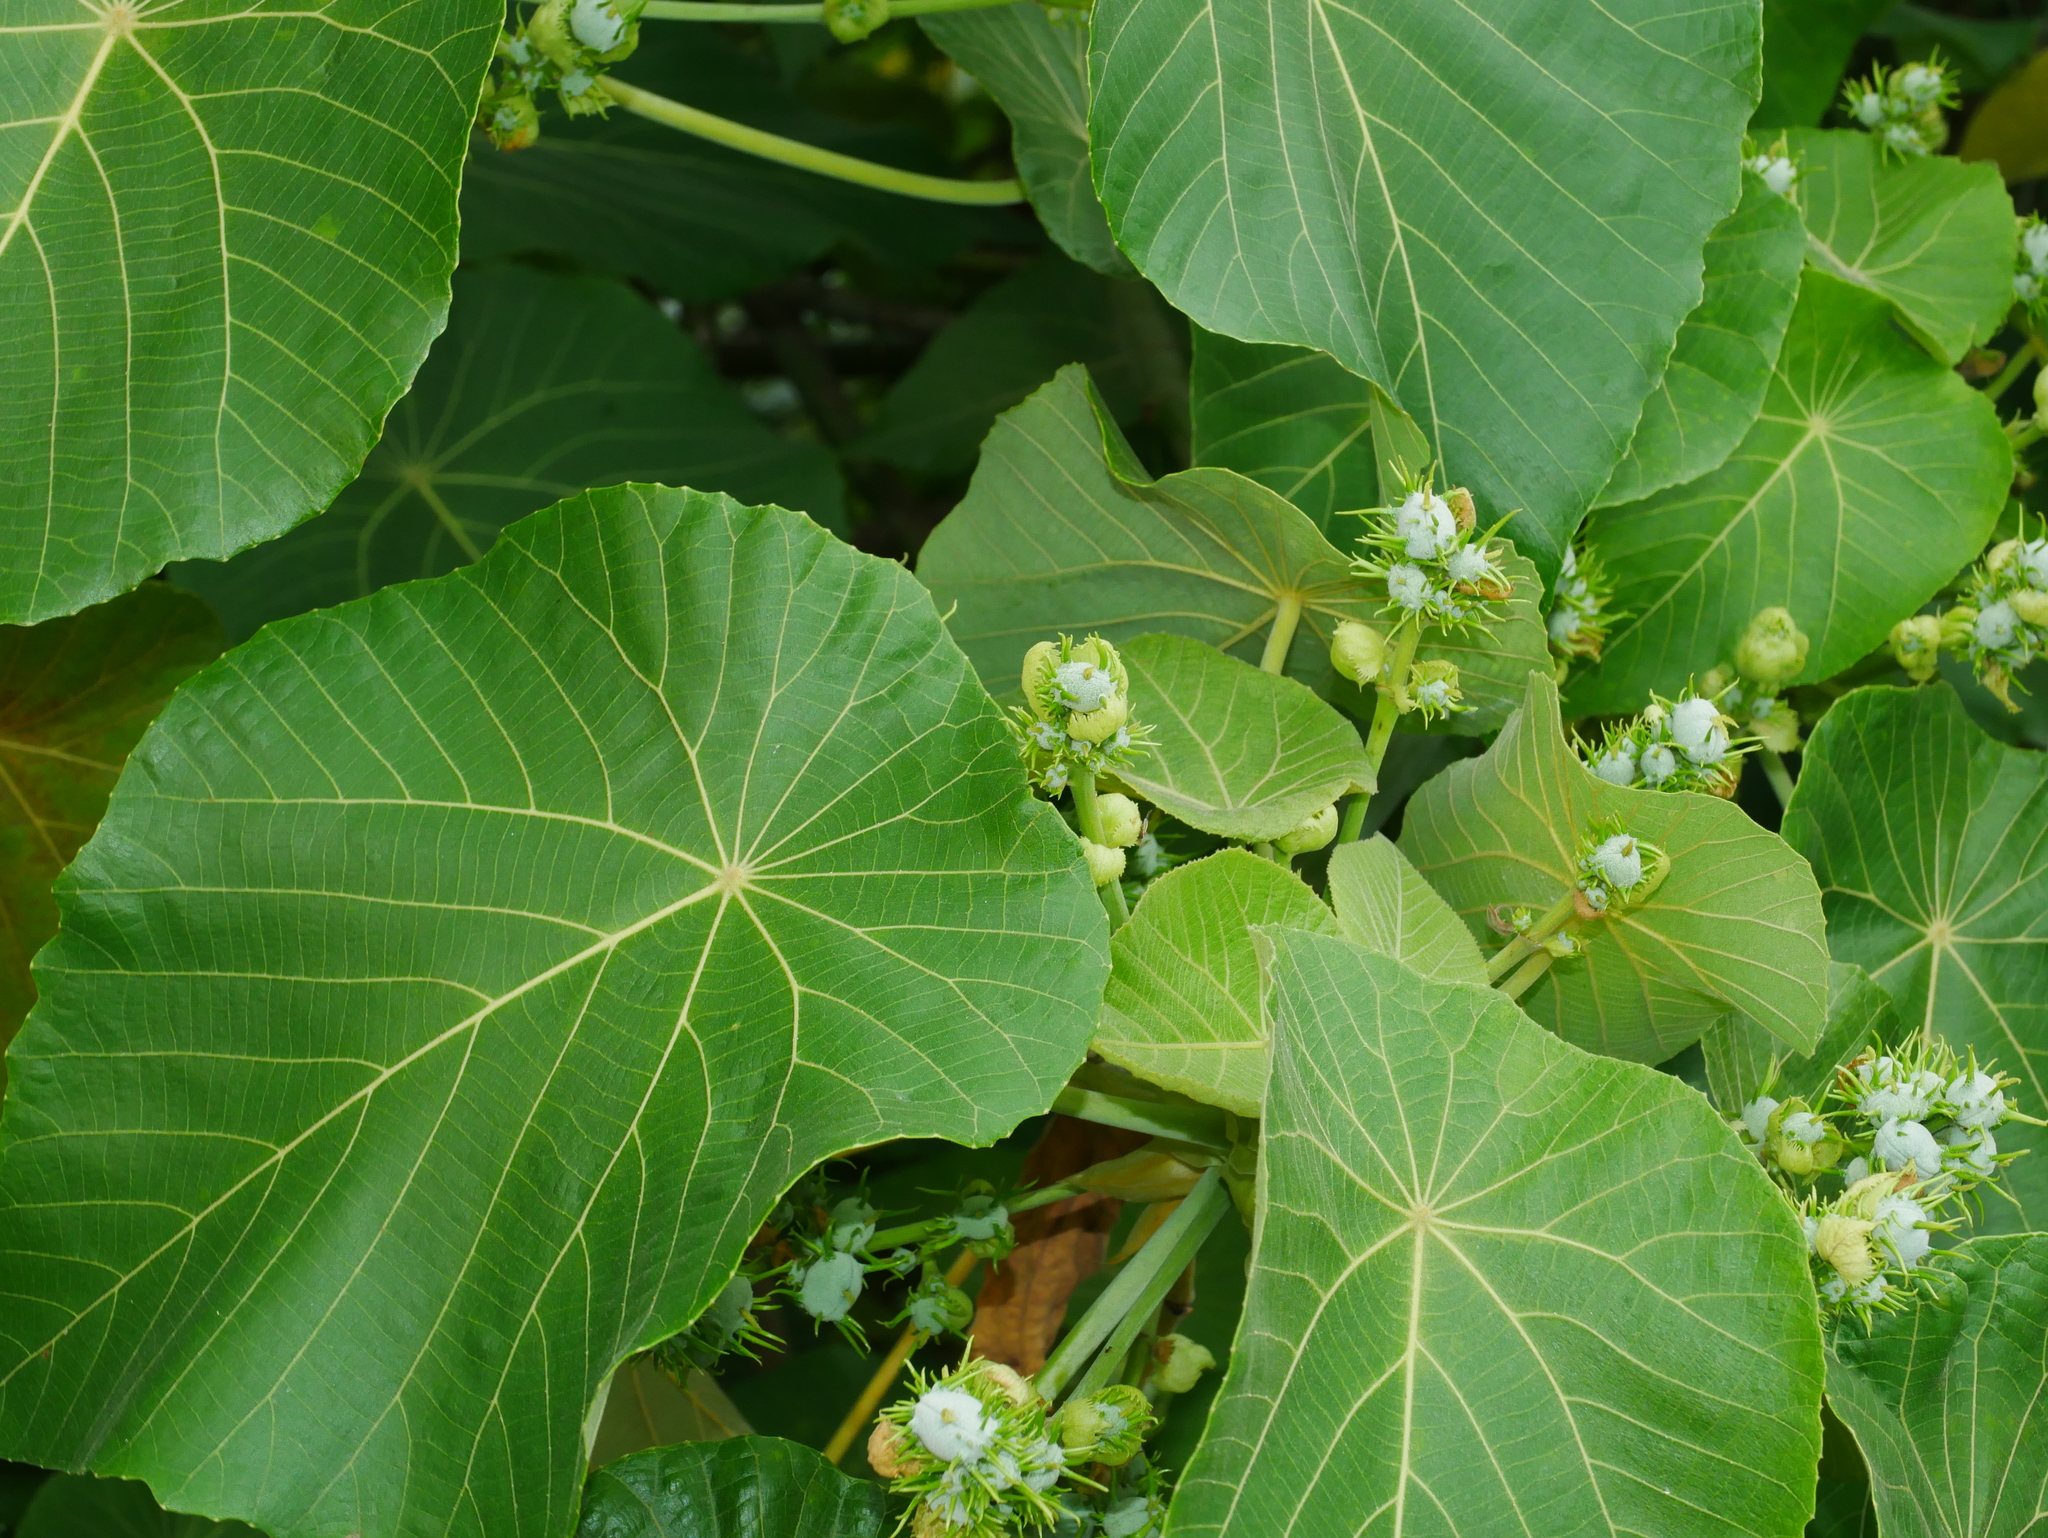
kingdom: Plantae
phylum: Tracheophyta
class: Magnoliopsida
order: Malpighiales
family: Euphorbiaceae
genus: Macaranga
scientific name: Macaranga tanarius
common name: Parasol leaf tree
